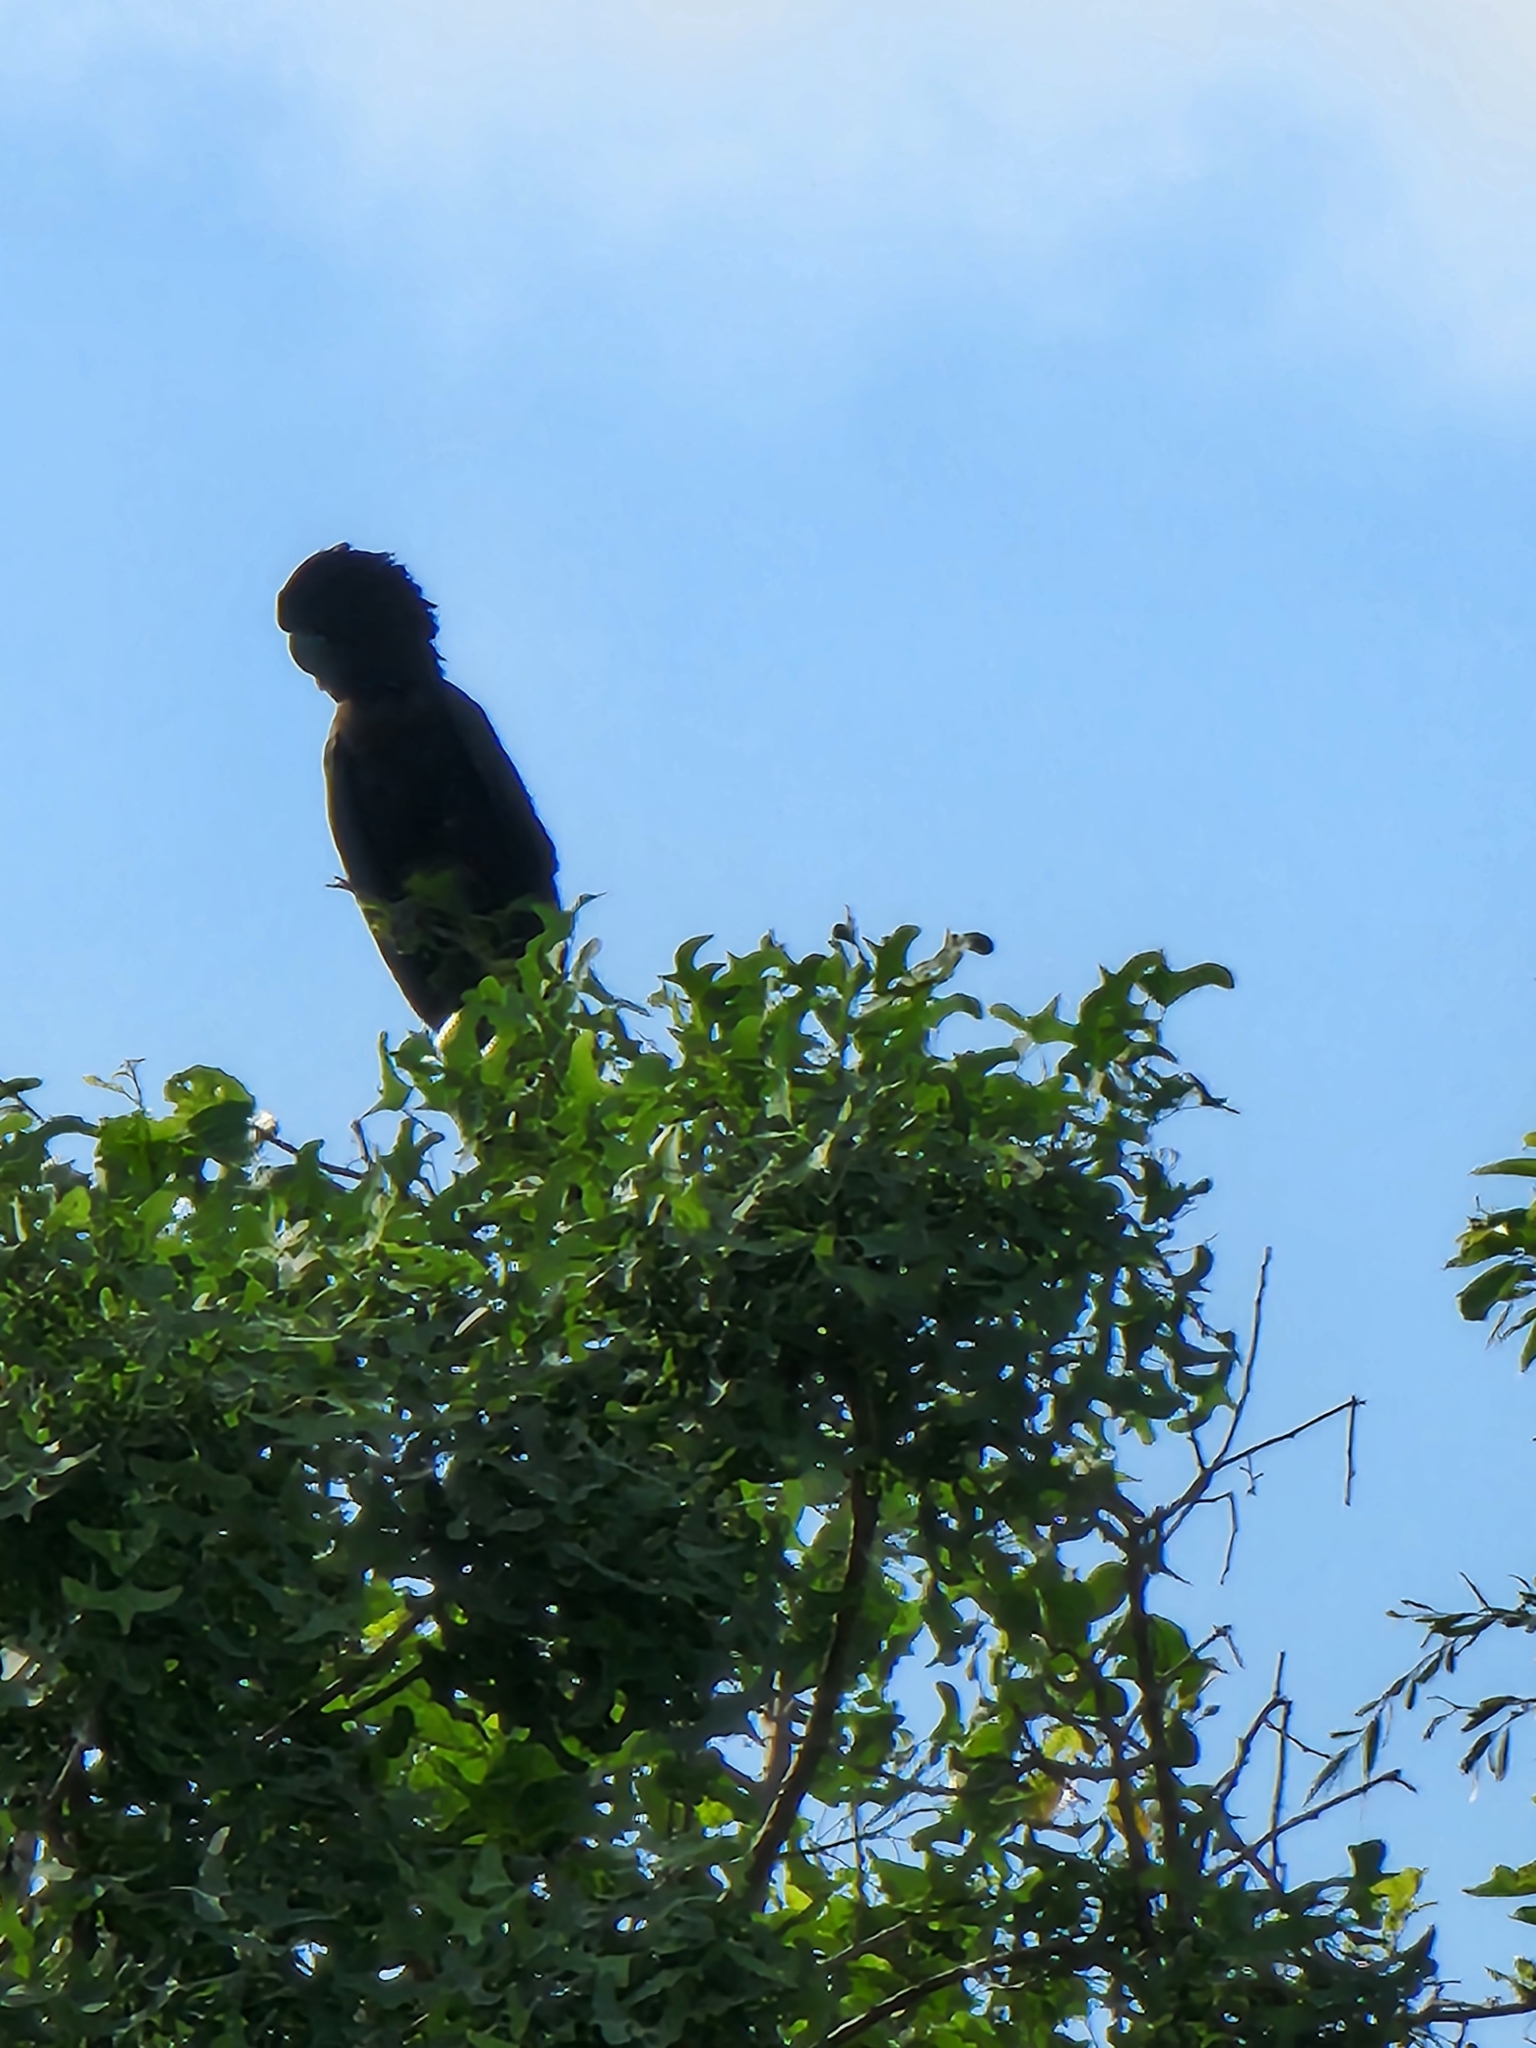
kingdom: Animalia
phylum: Chordata
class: Aves
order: Psittaciformes
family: Psittacidae
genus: Calyptorhynchus
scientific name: Calyptorhynchus banksii
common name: Red-tailed black cockatoo
